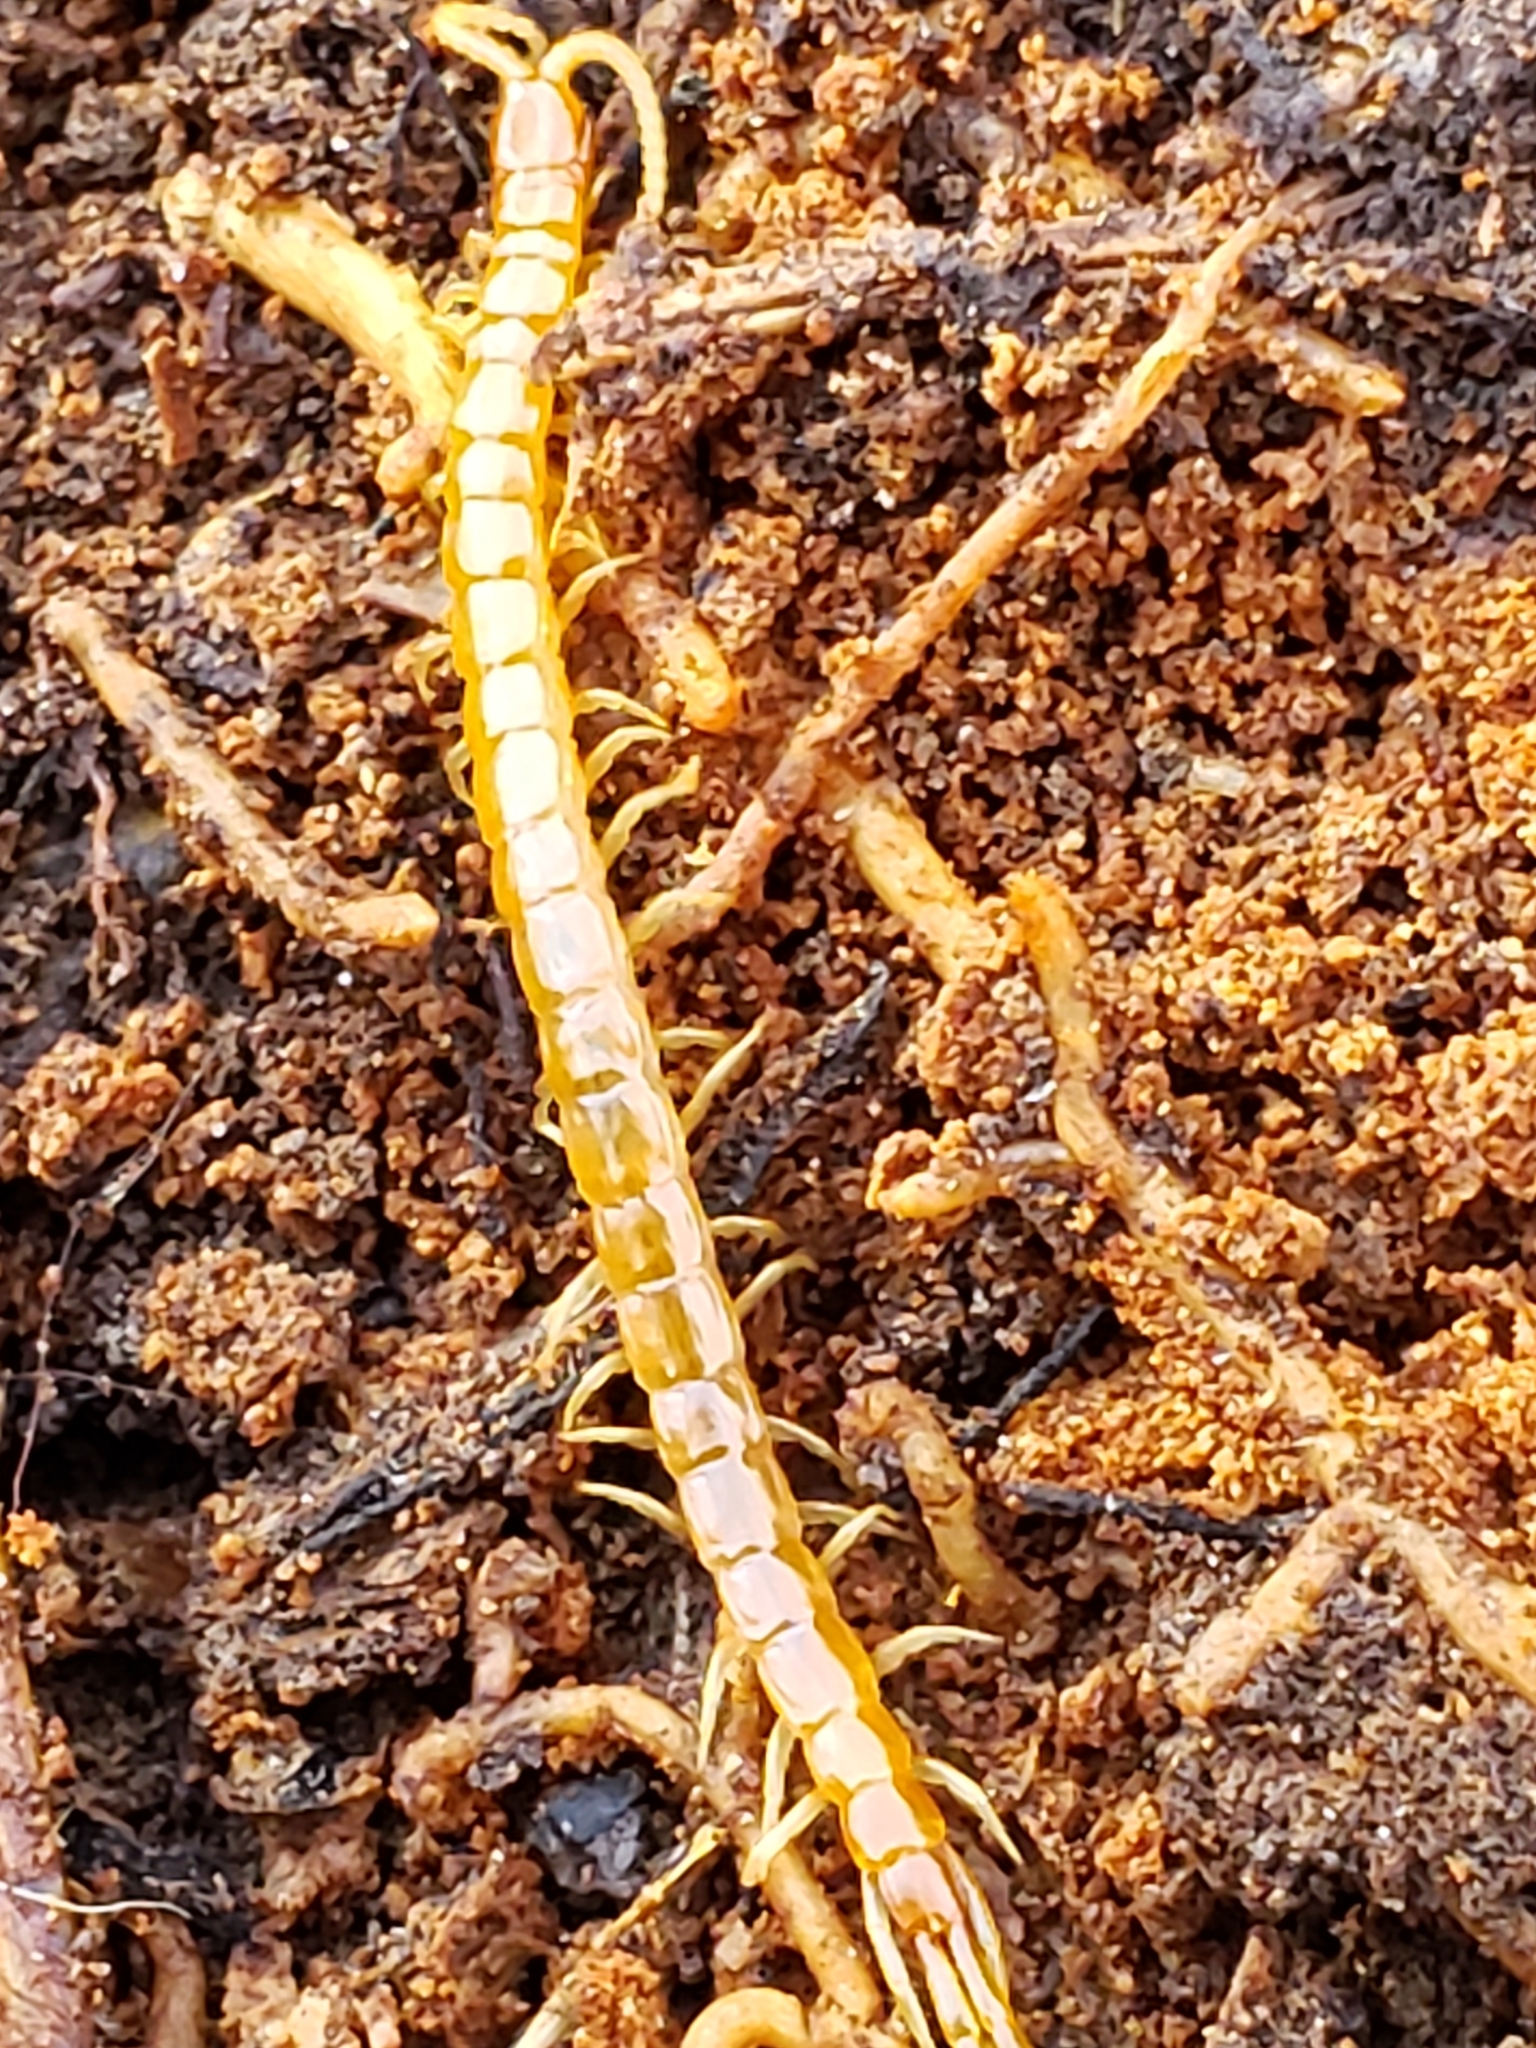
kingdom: Animalia
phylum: Arthropoda
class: Chilopoda
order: Scolopendromorpha
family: Scolopocryptopidae
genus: Scolopocryptops
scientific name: Scolopocryptops peregrinator
